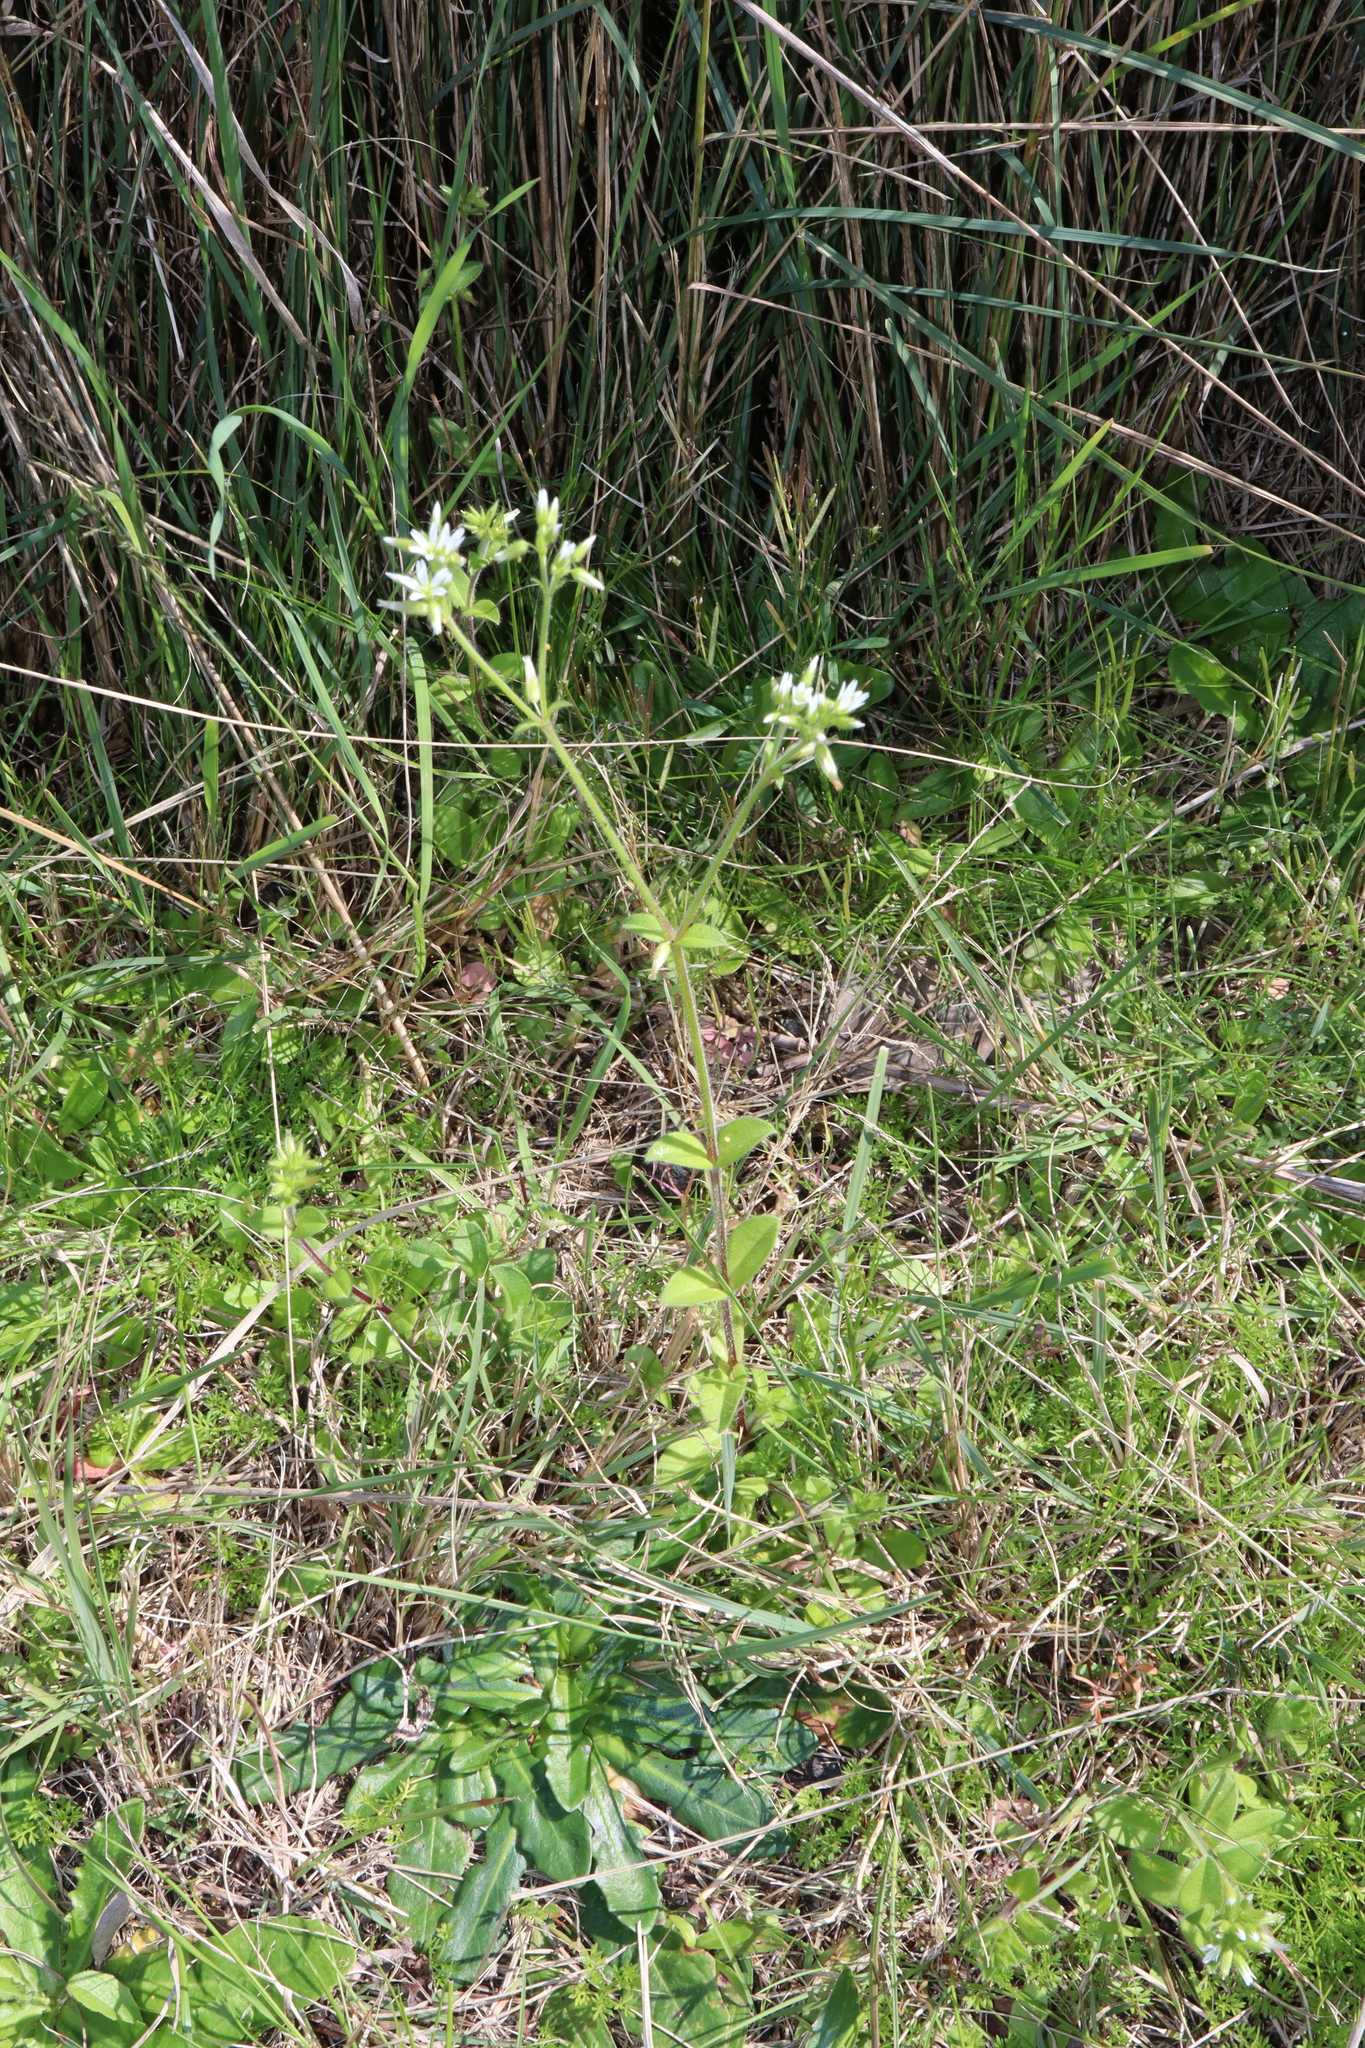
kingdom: Plantae
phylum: Tracheophyta
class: Magnoliopsida
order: Caryophyllales
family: Caryophyllaceae
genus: Cerastium
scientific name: Cerastium glomeratum
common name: Sticky chickweed
